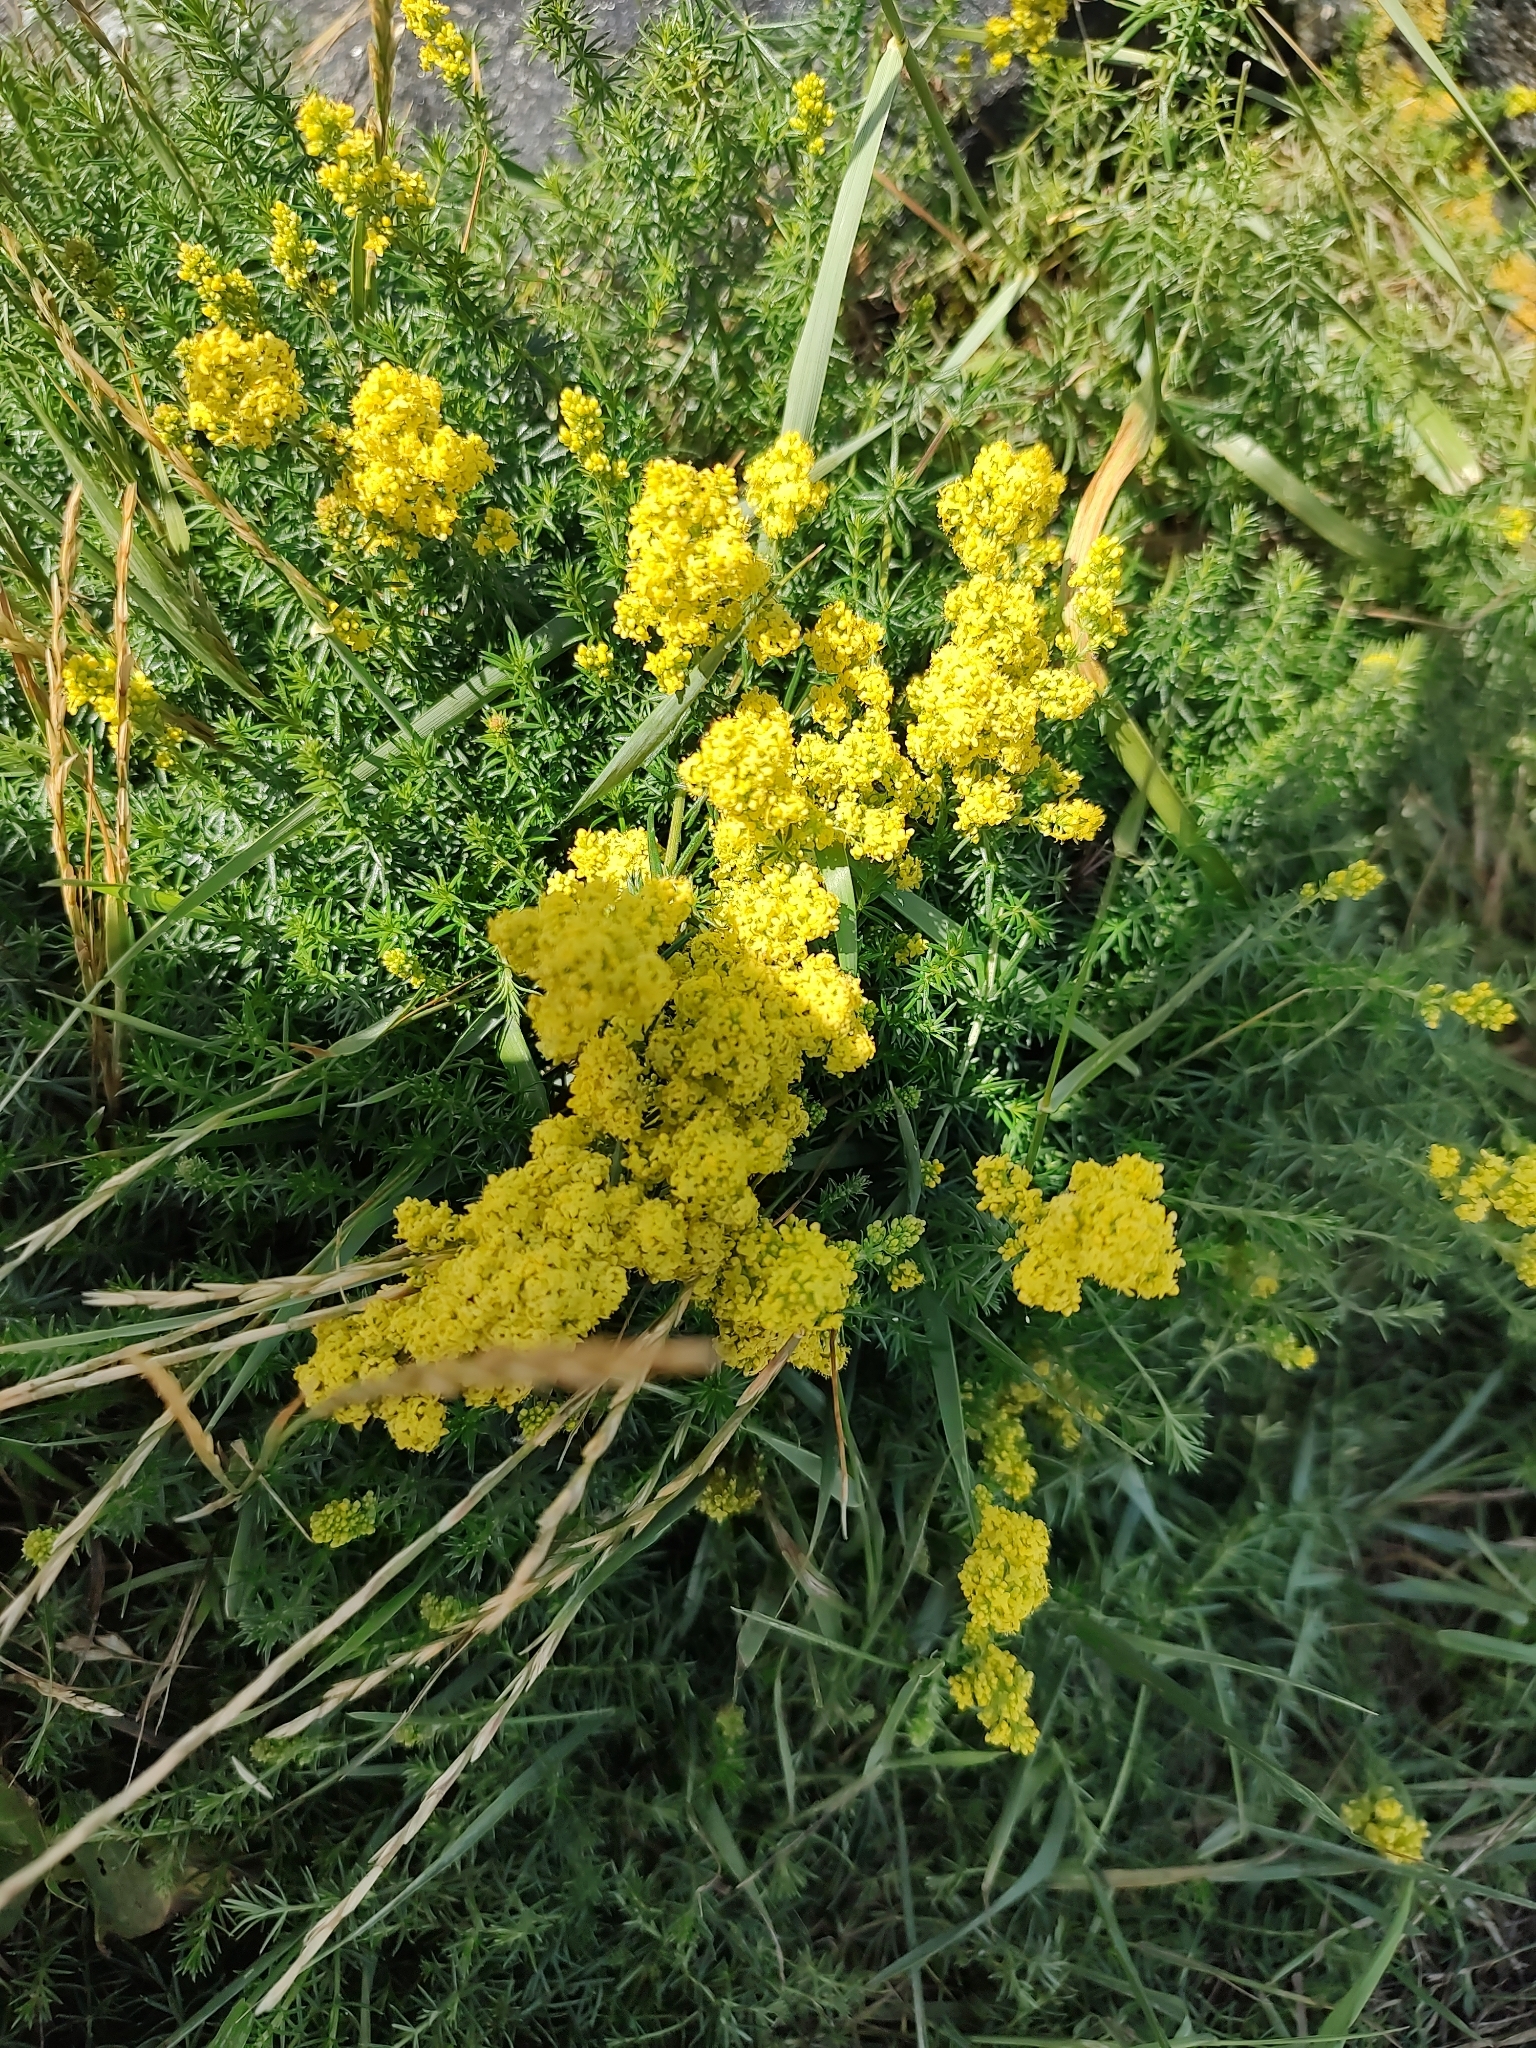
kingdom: Plantae
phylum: Tracheophyta
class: Magnoliopsida
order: Gentianales
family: Rubiaceae
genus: Galium
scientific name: Galium verum
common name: Lady's bedstraw
